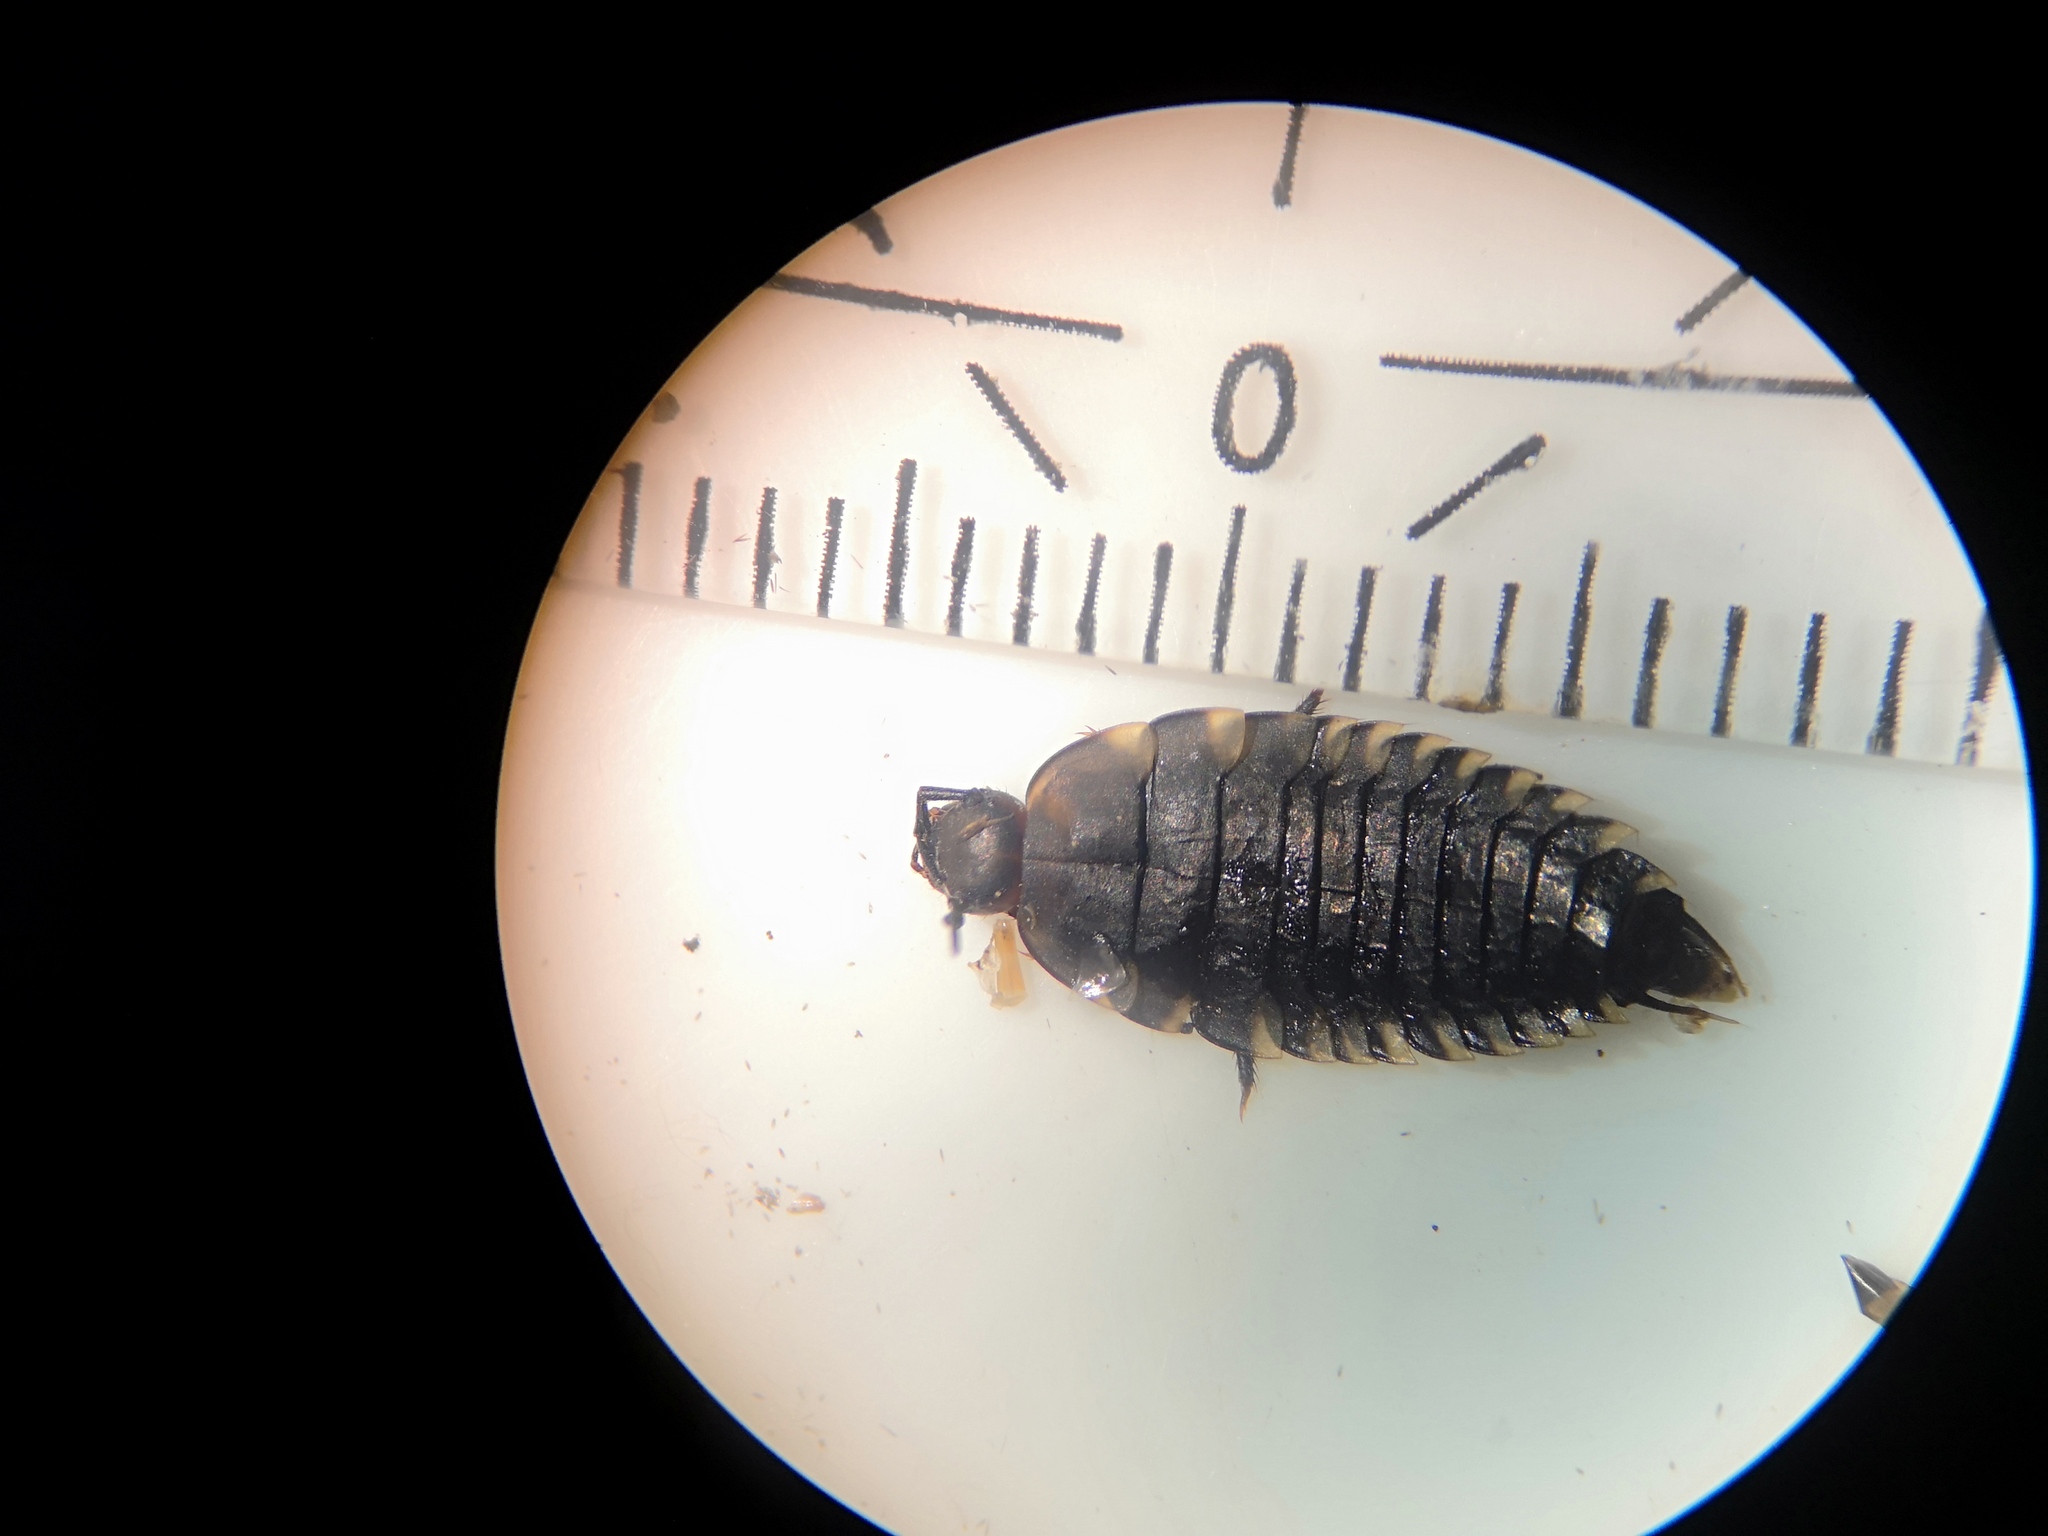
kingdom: Animalia
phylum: Arthropoda
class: Insecta
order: Coleoptera
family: Staphylinidae
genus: Oiceoptoma
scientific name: Oiceoptoma thoracicum
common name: Red-breasted carrion beetle
